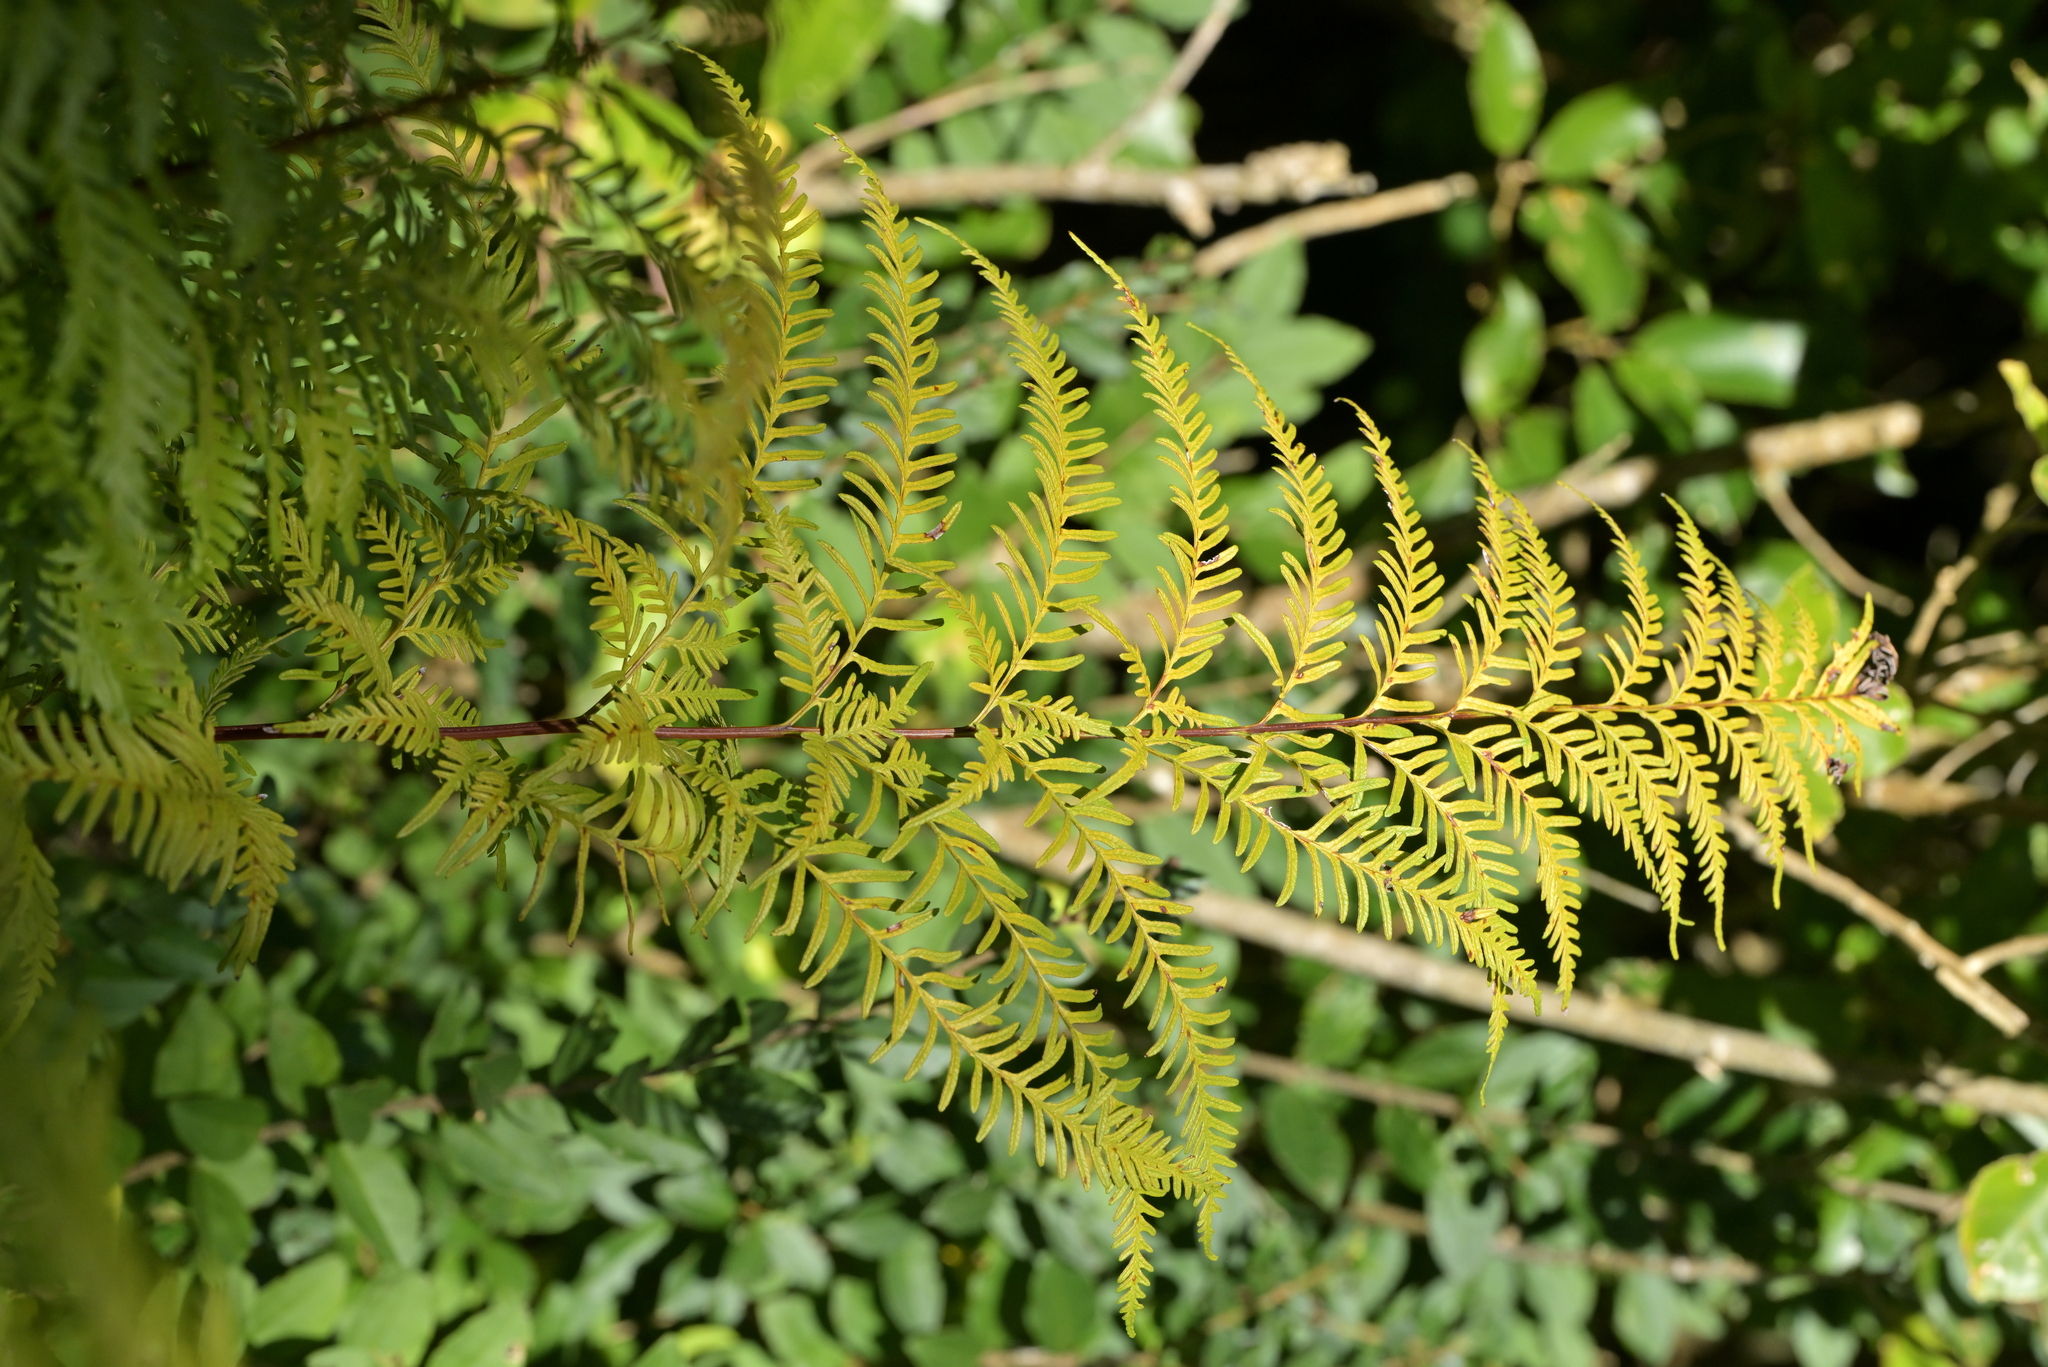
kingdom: Plantae
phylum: Tracheophyta
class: Polypodiopsida
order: Polypodiales
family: Pteridaceae
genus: Pteris
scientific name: Pteris tremula
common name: Australian brake
